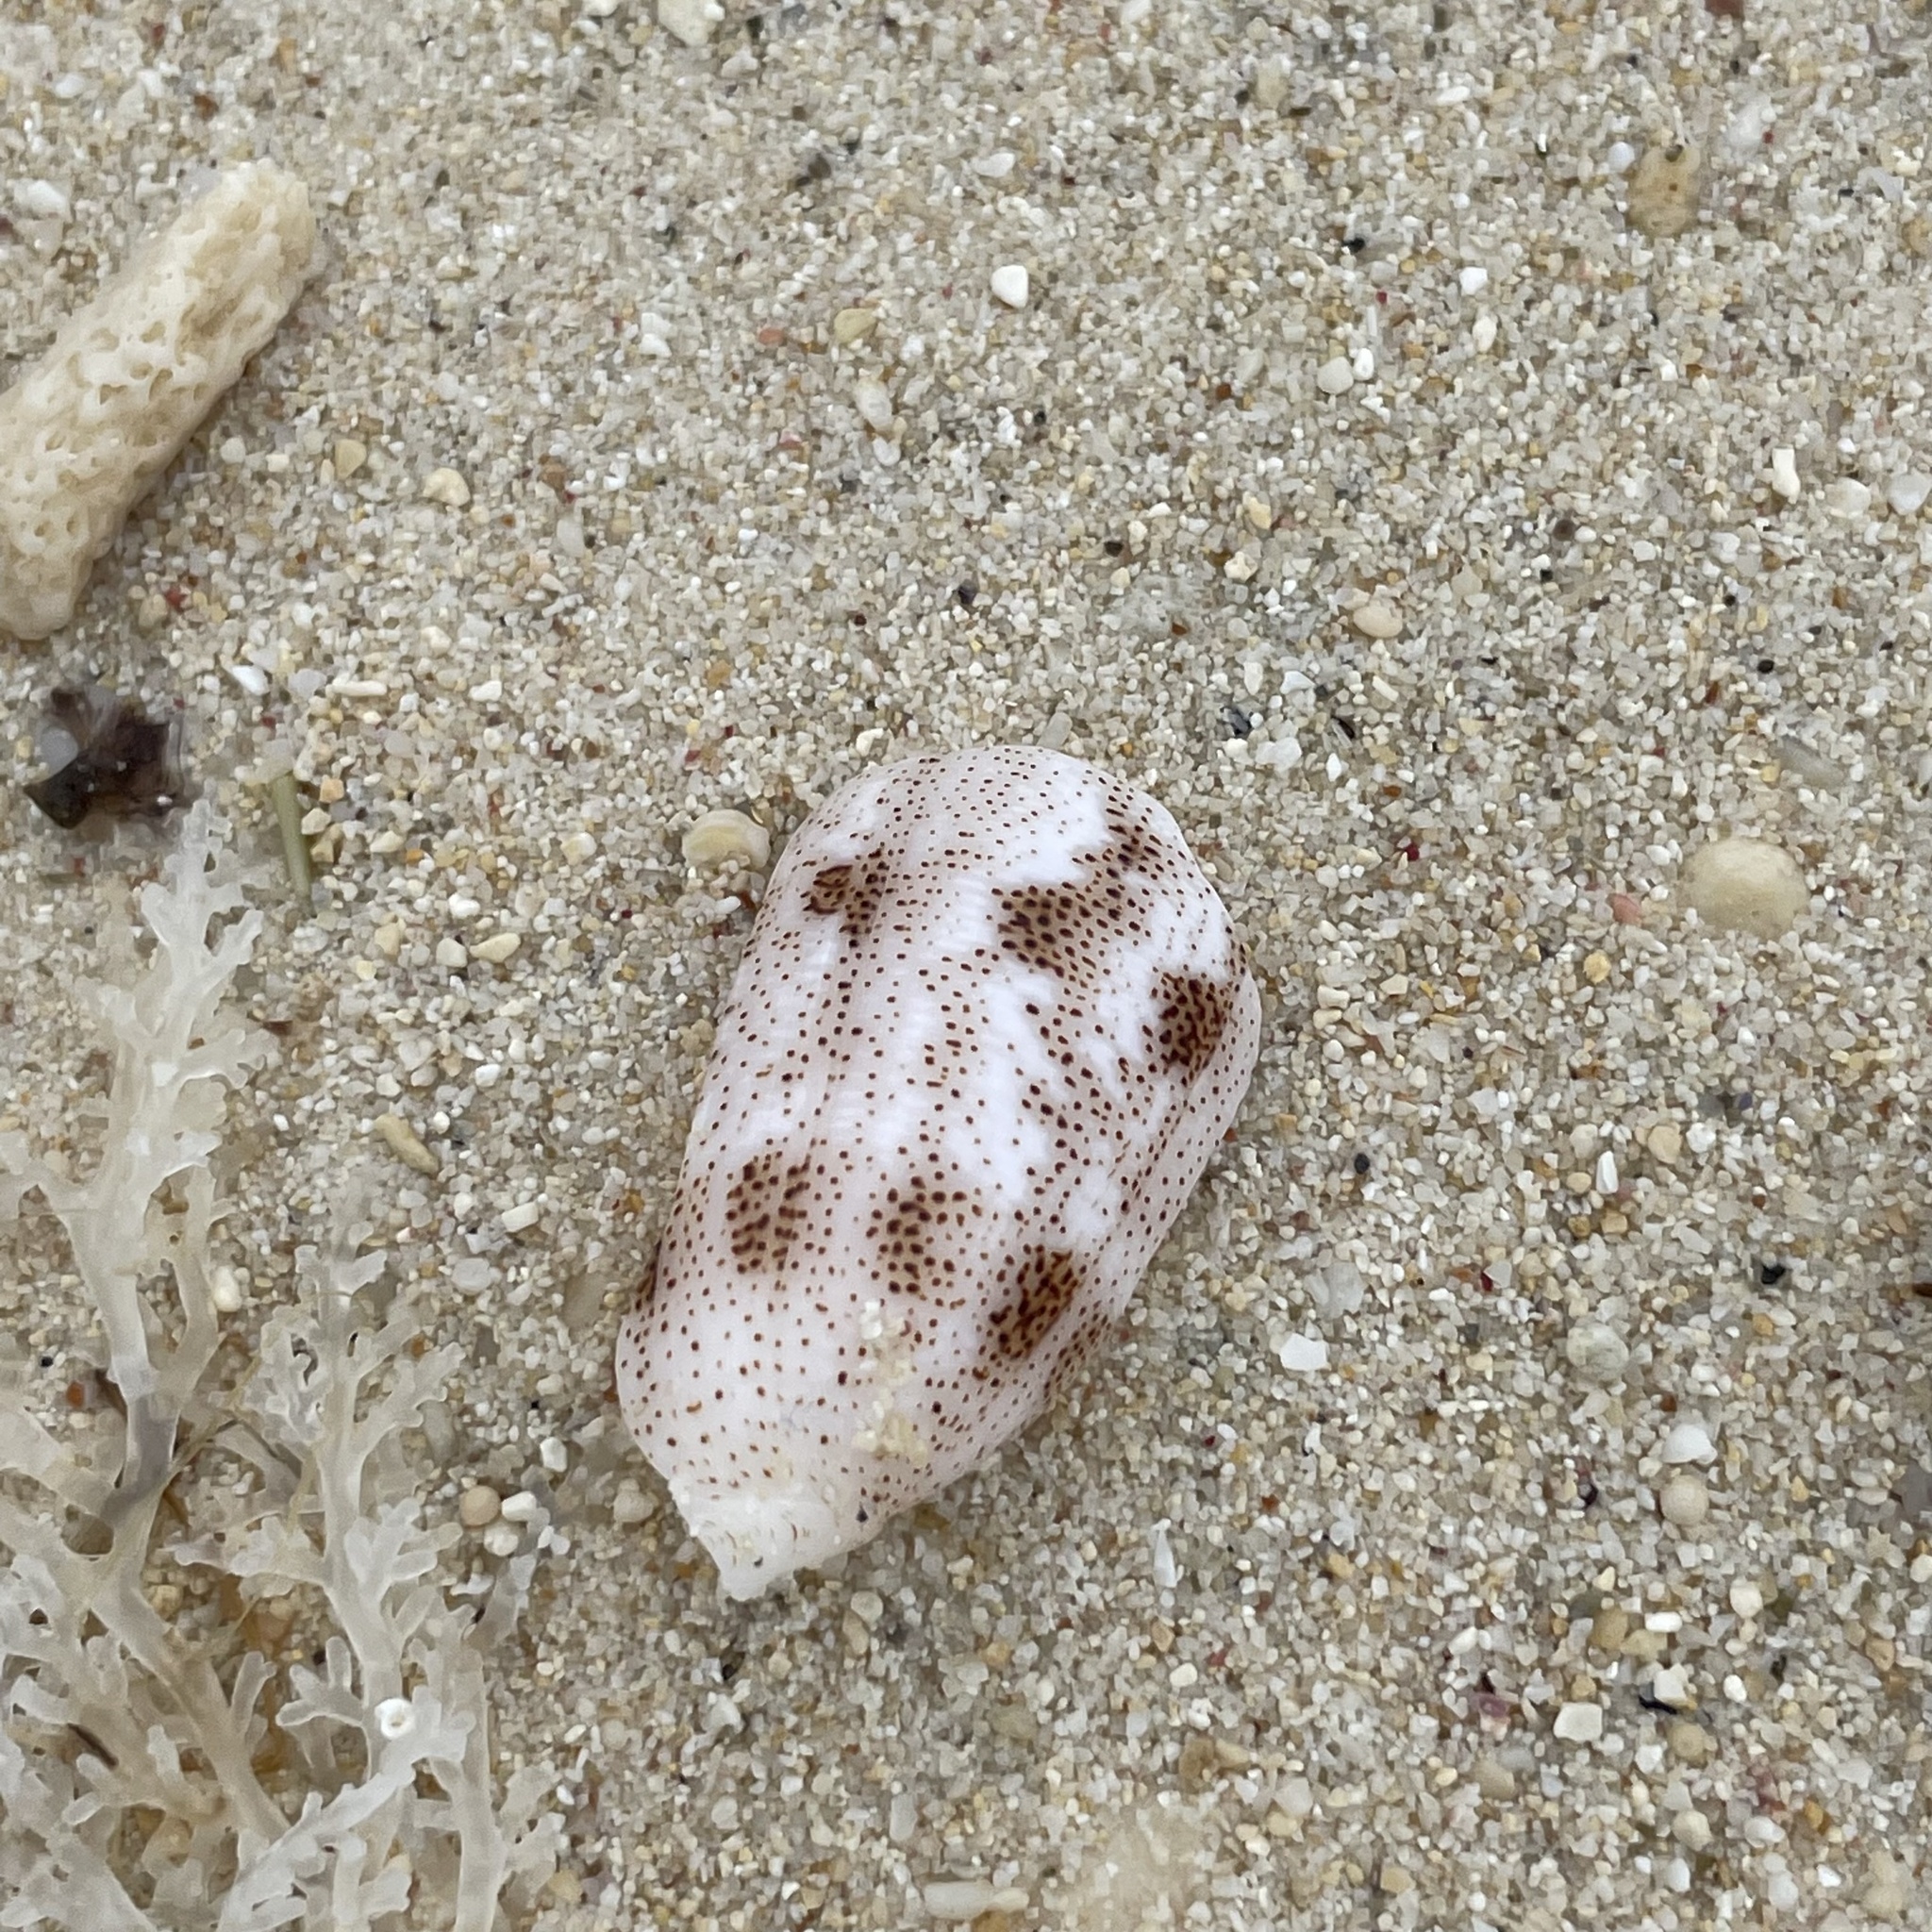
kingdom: Animalia
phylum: Mollusca
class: Gastropoda
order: Neogastropoda
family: Conidae
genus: Conus
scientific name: Conus arenatus
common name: Sand-dusted cone
